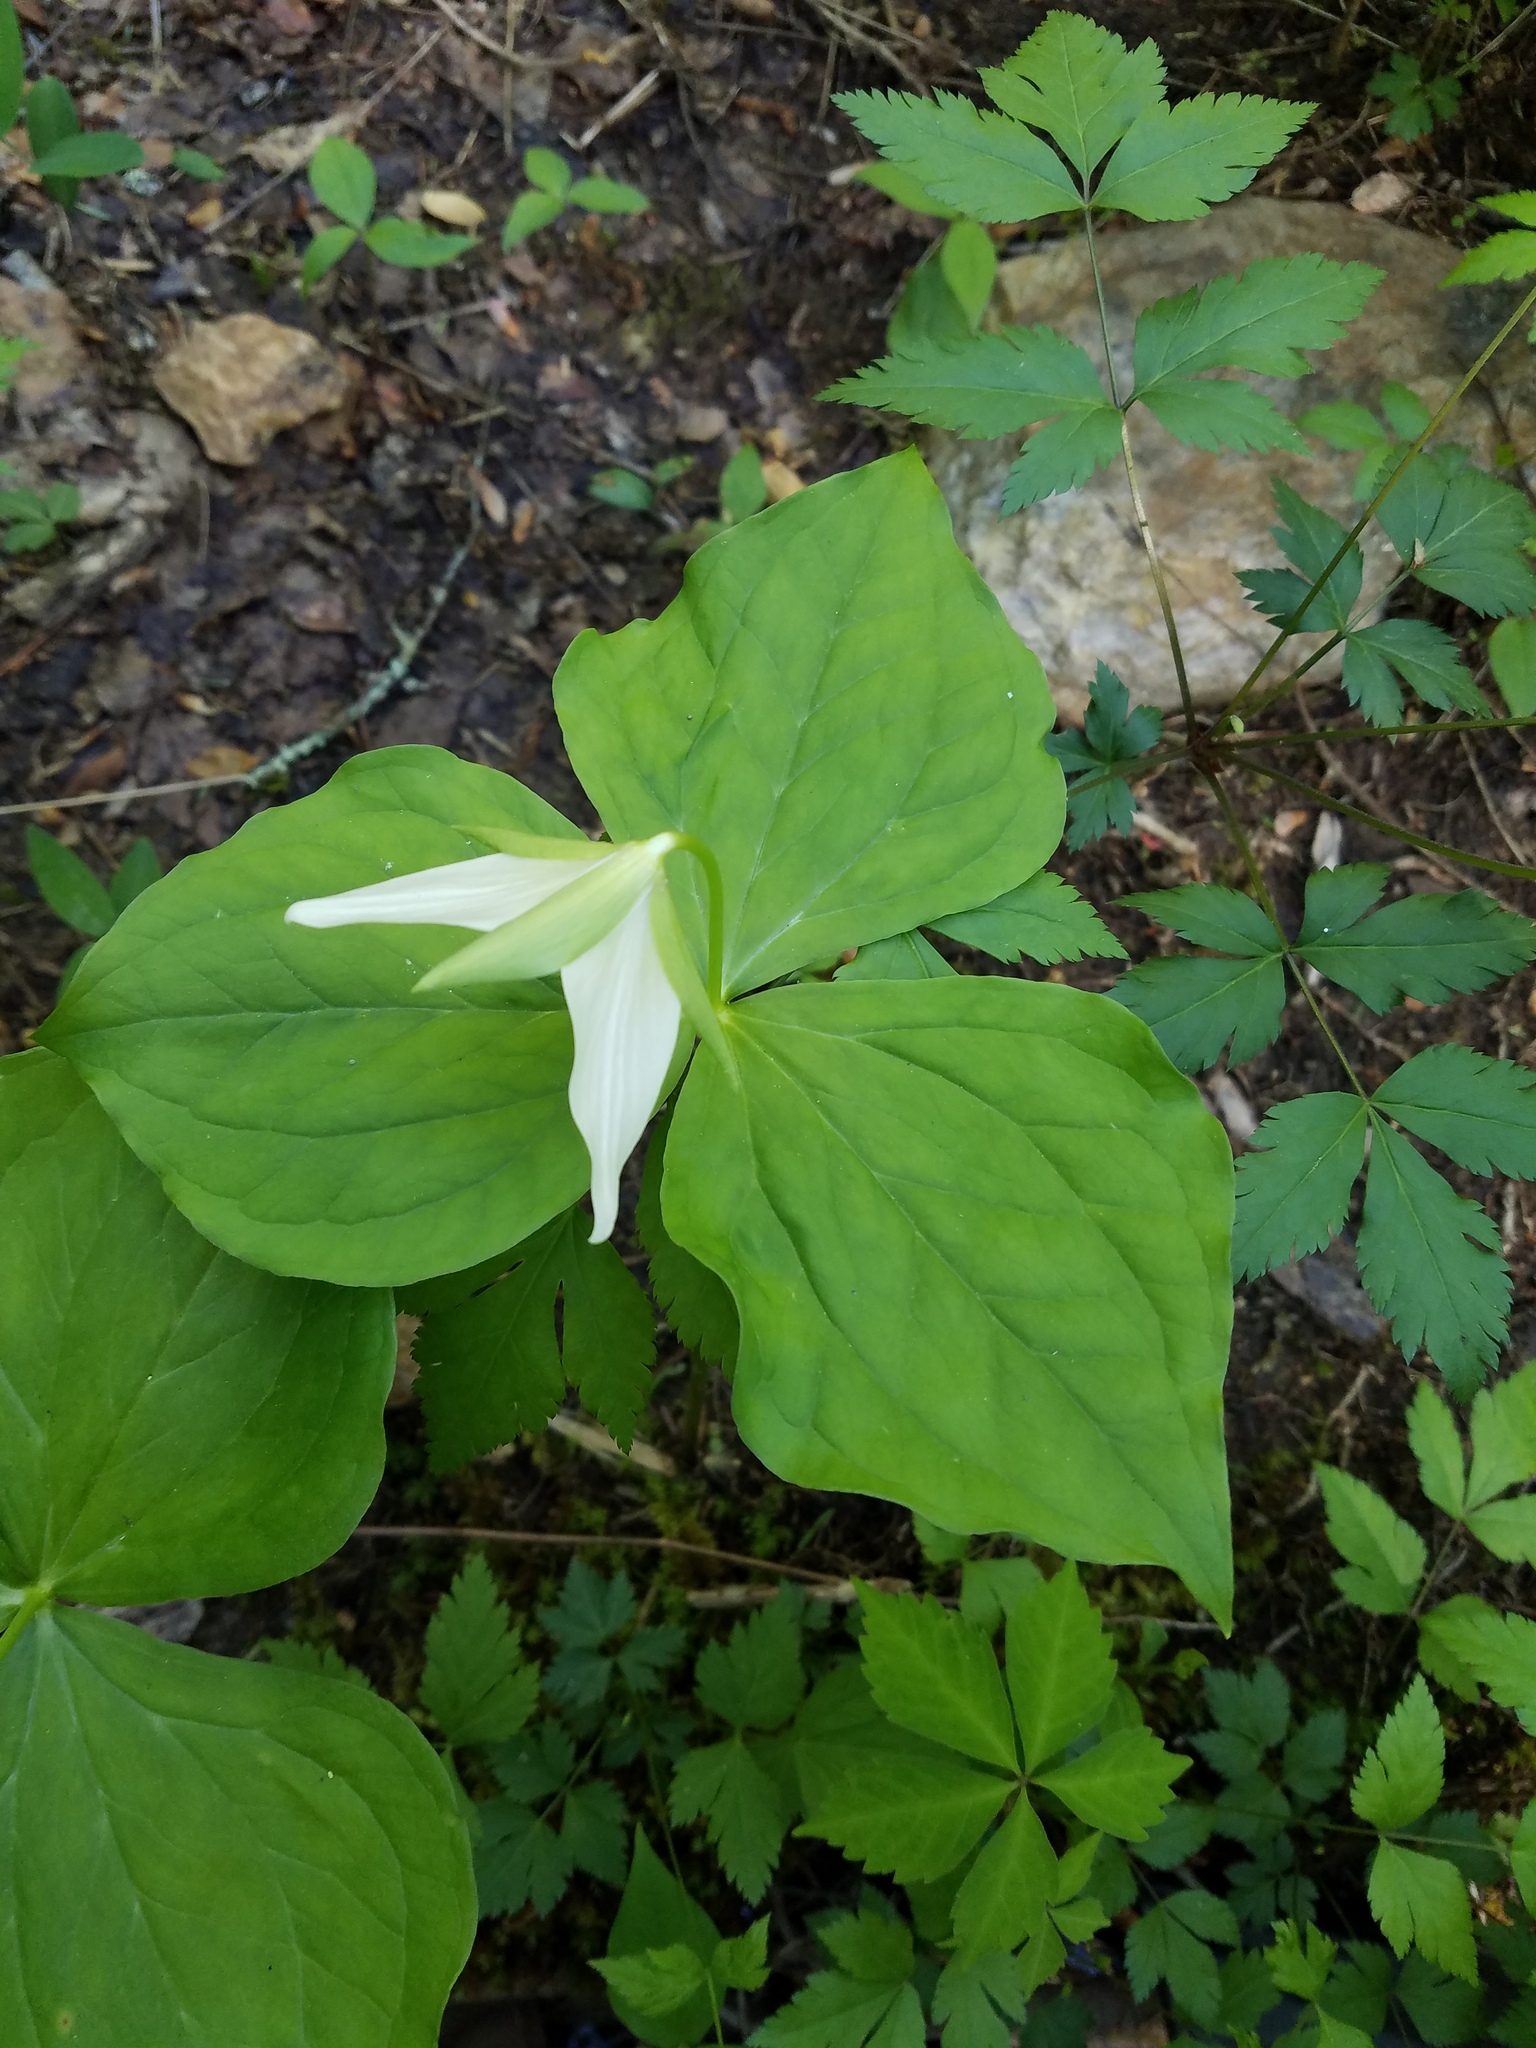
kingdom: Plantae
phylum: Tracheophyta
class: Liliopsida
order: Liliales
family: Melanthiaceae
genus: Trillium
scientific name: Trillium erectum
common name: Purple trillium
